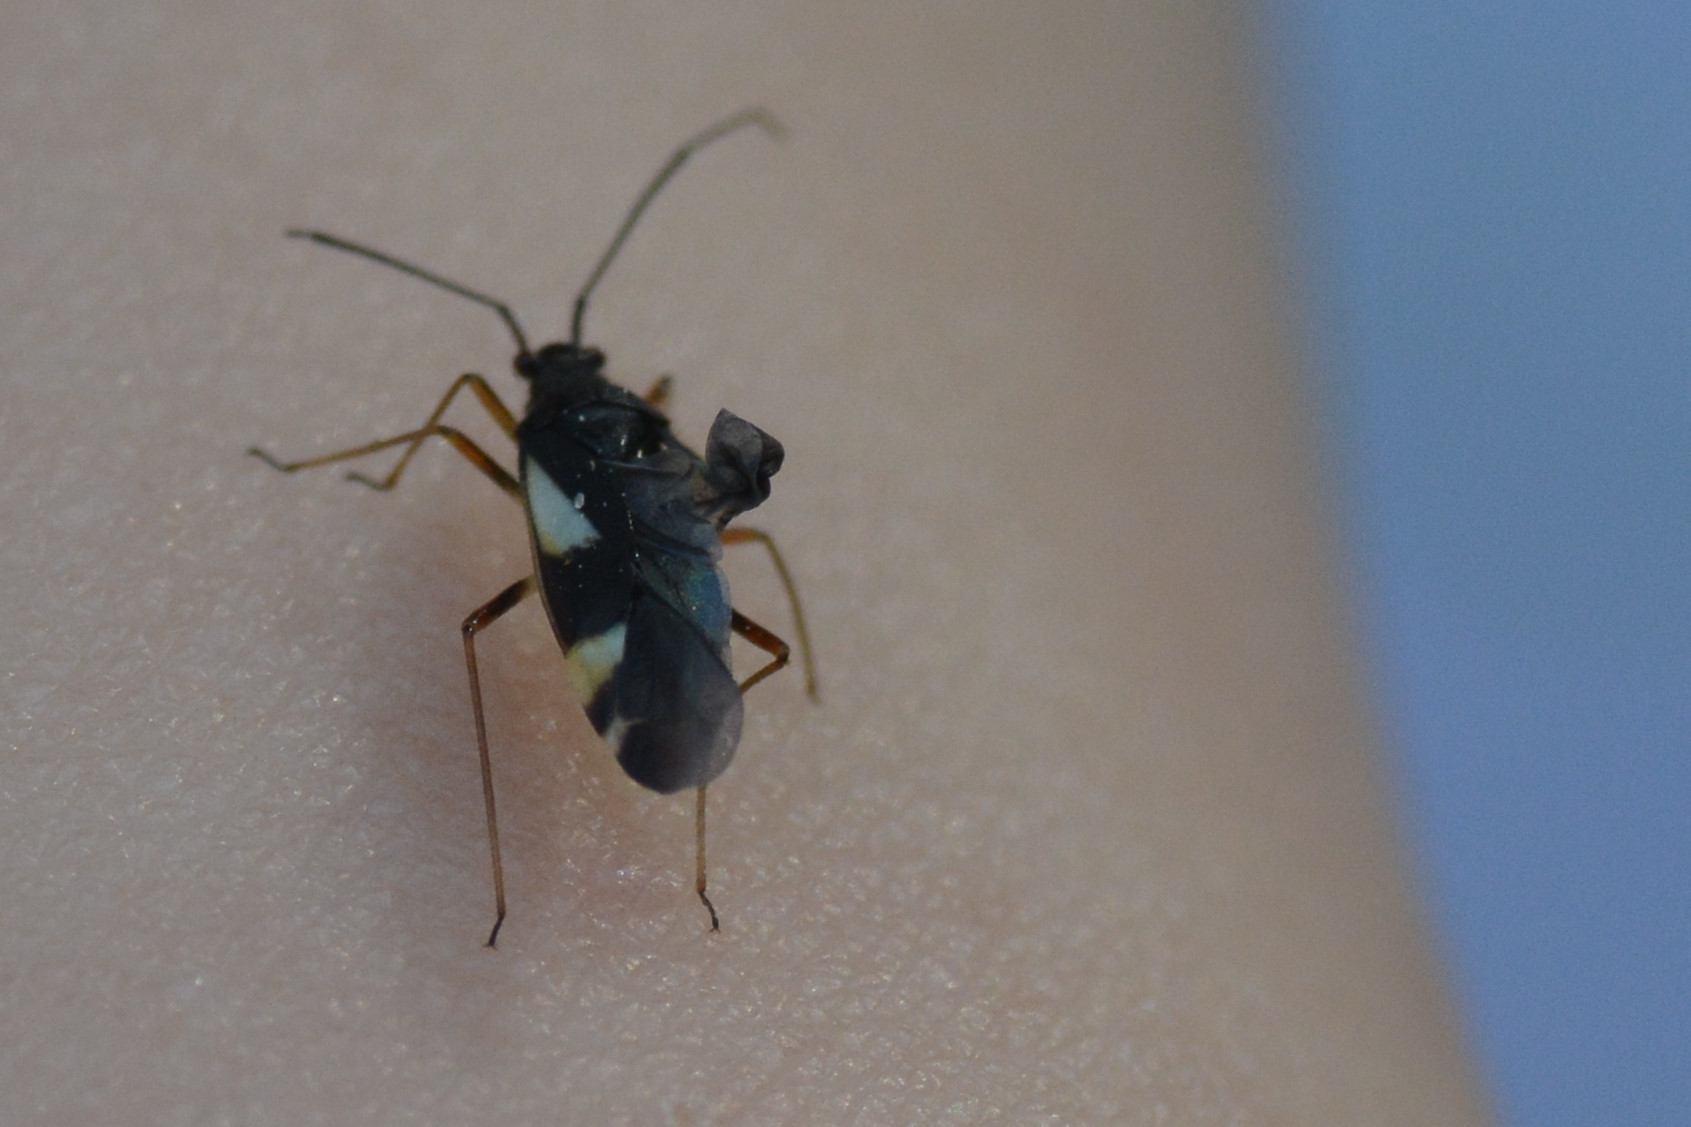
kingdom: Animalia
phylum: Arthropoda
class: Insecta
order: Hemiptera
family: Miridae
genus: Dryophilocoris
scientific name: Dryophilocoris flavoquadrimaculatus
